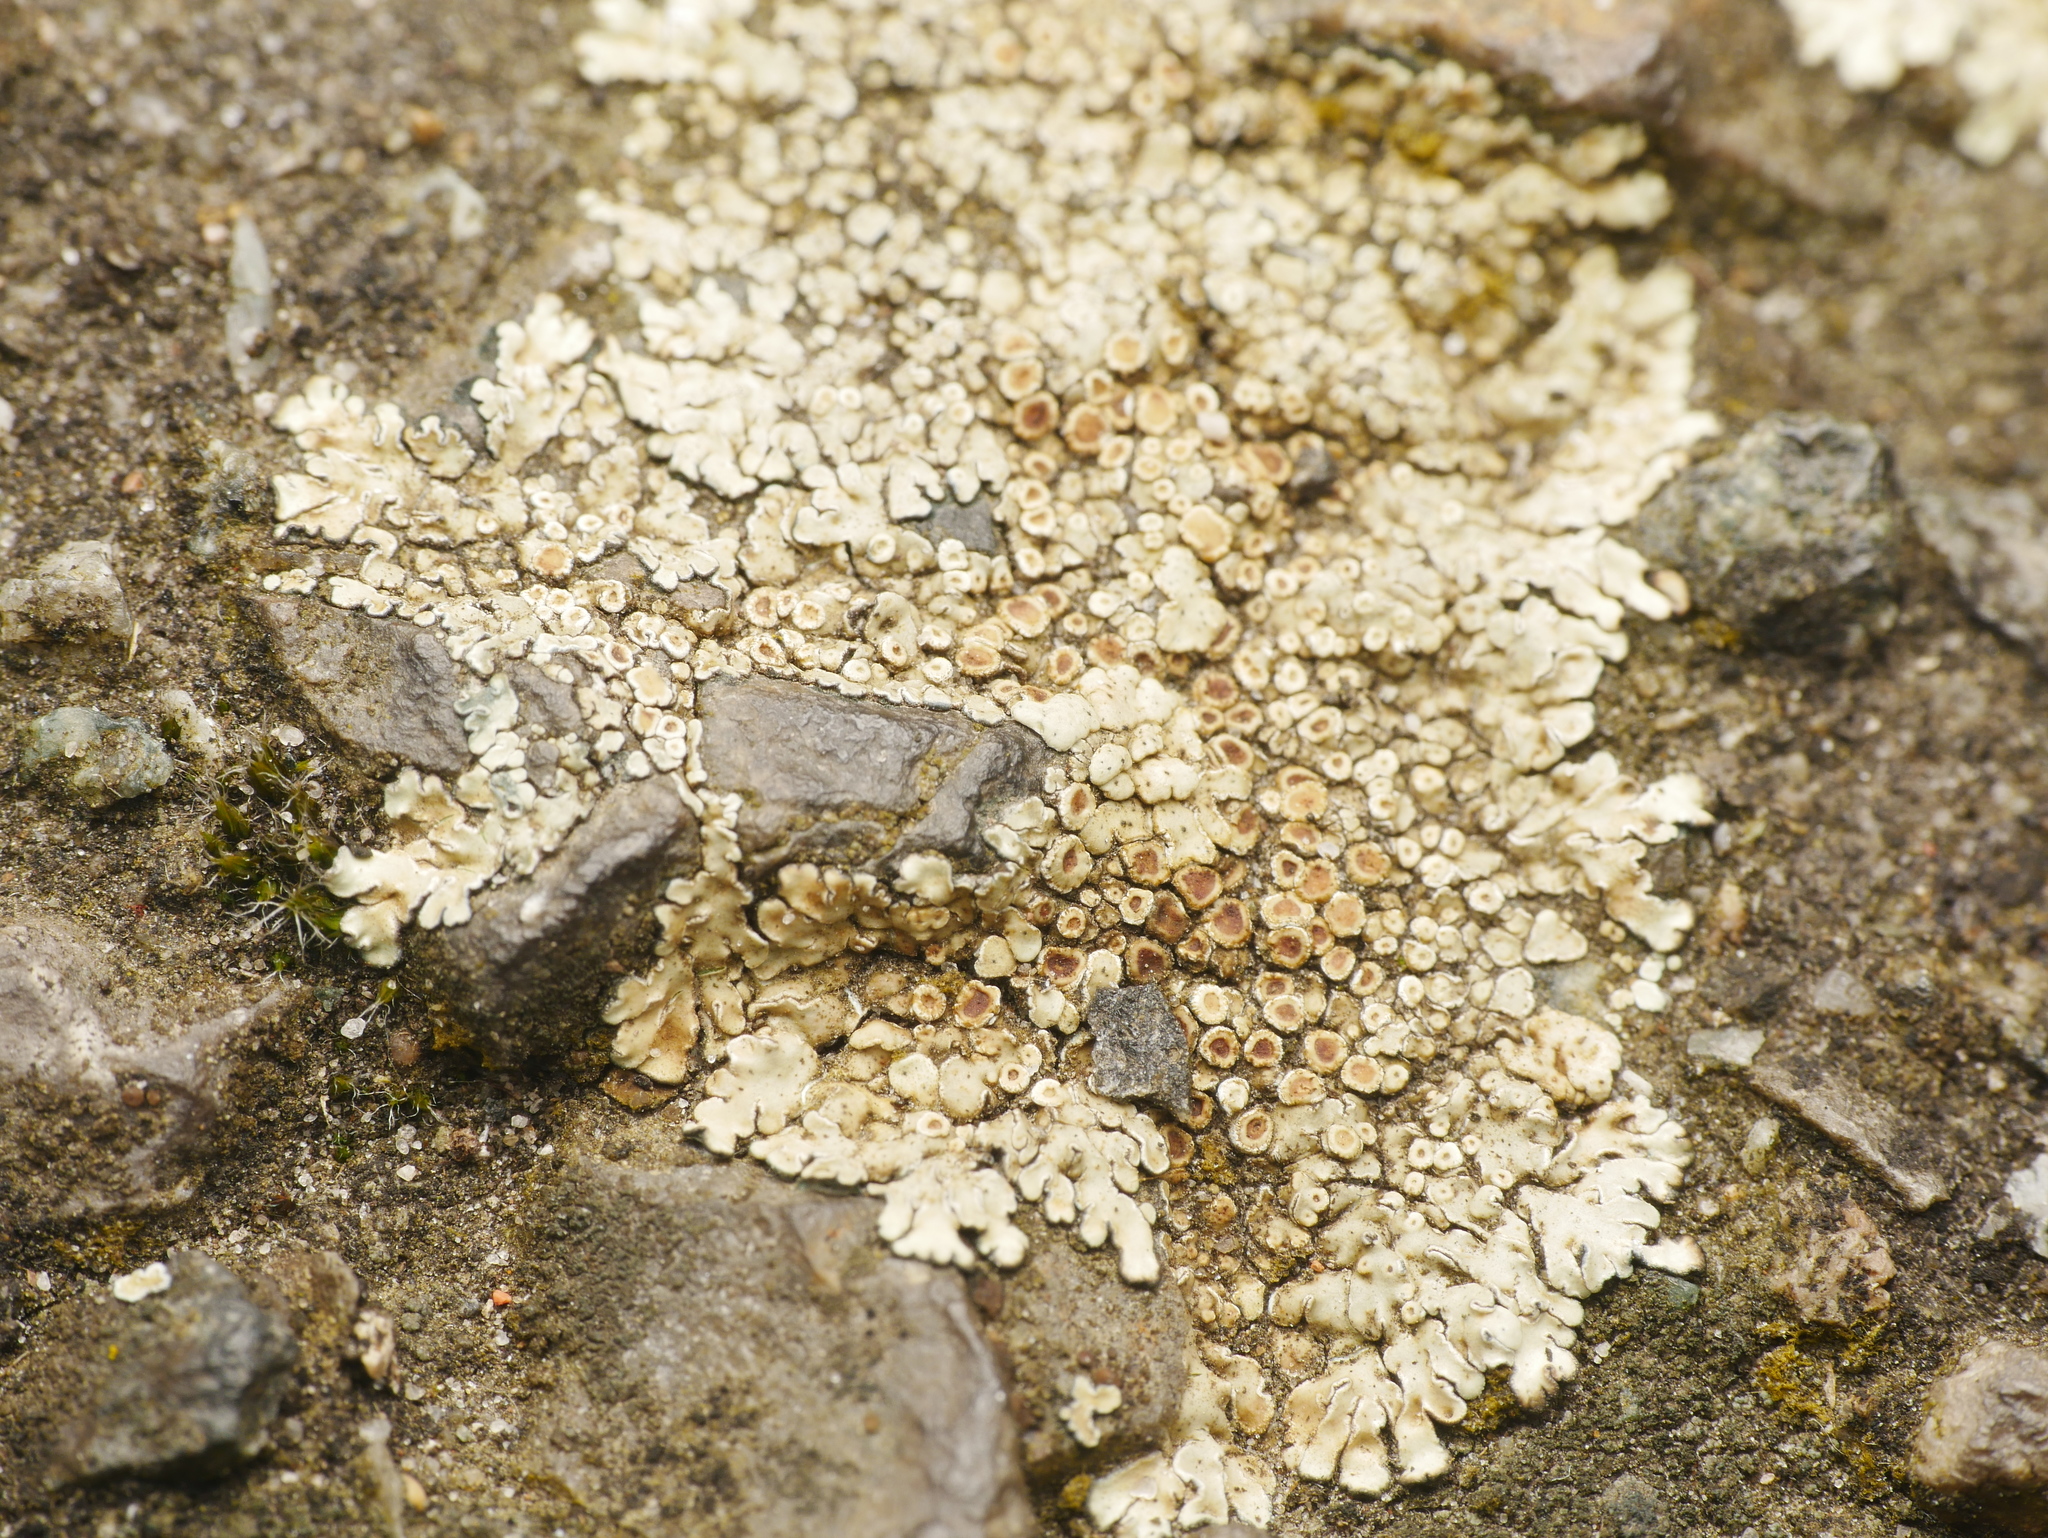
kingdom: Fungi
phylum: Ascomycota
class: Lecanoromycetes
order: Lecanorales
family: Lecanoraceae
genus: Protoparmeliopsis
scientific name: Protoparmeliopsis muralis
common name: Stonewall rim lichen
